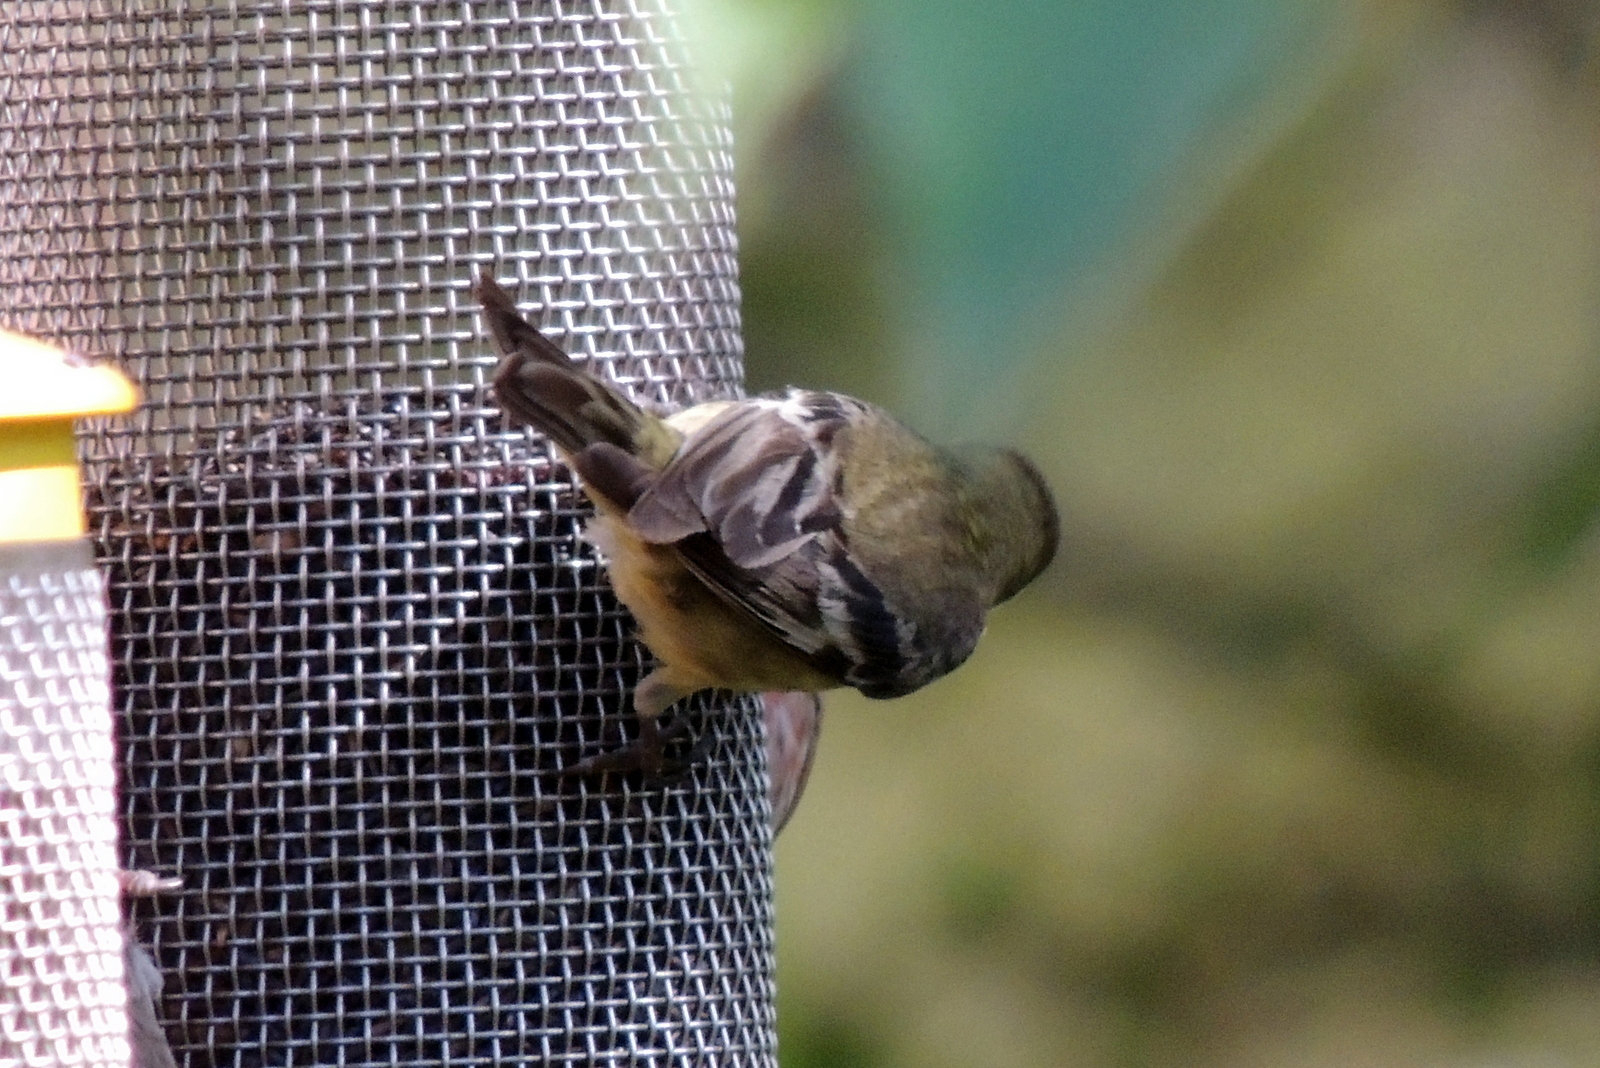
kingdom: Animalia
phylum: Chordata
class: Aves
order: Passeriformes
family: Fringillidae
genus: Spinus
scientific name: Spinus psaltria
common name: Lesser goldfinch
